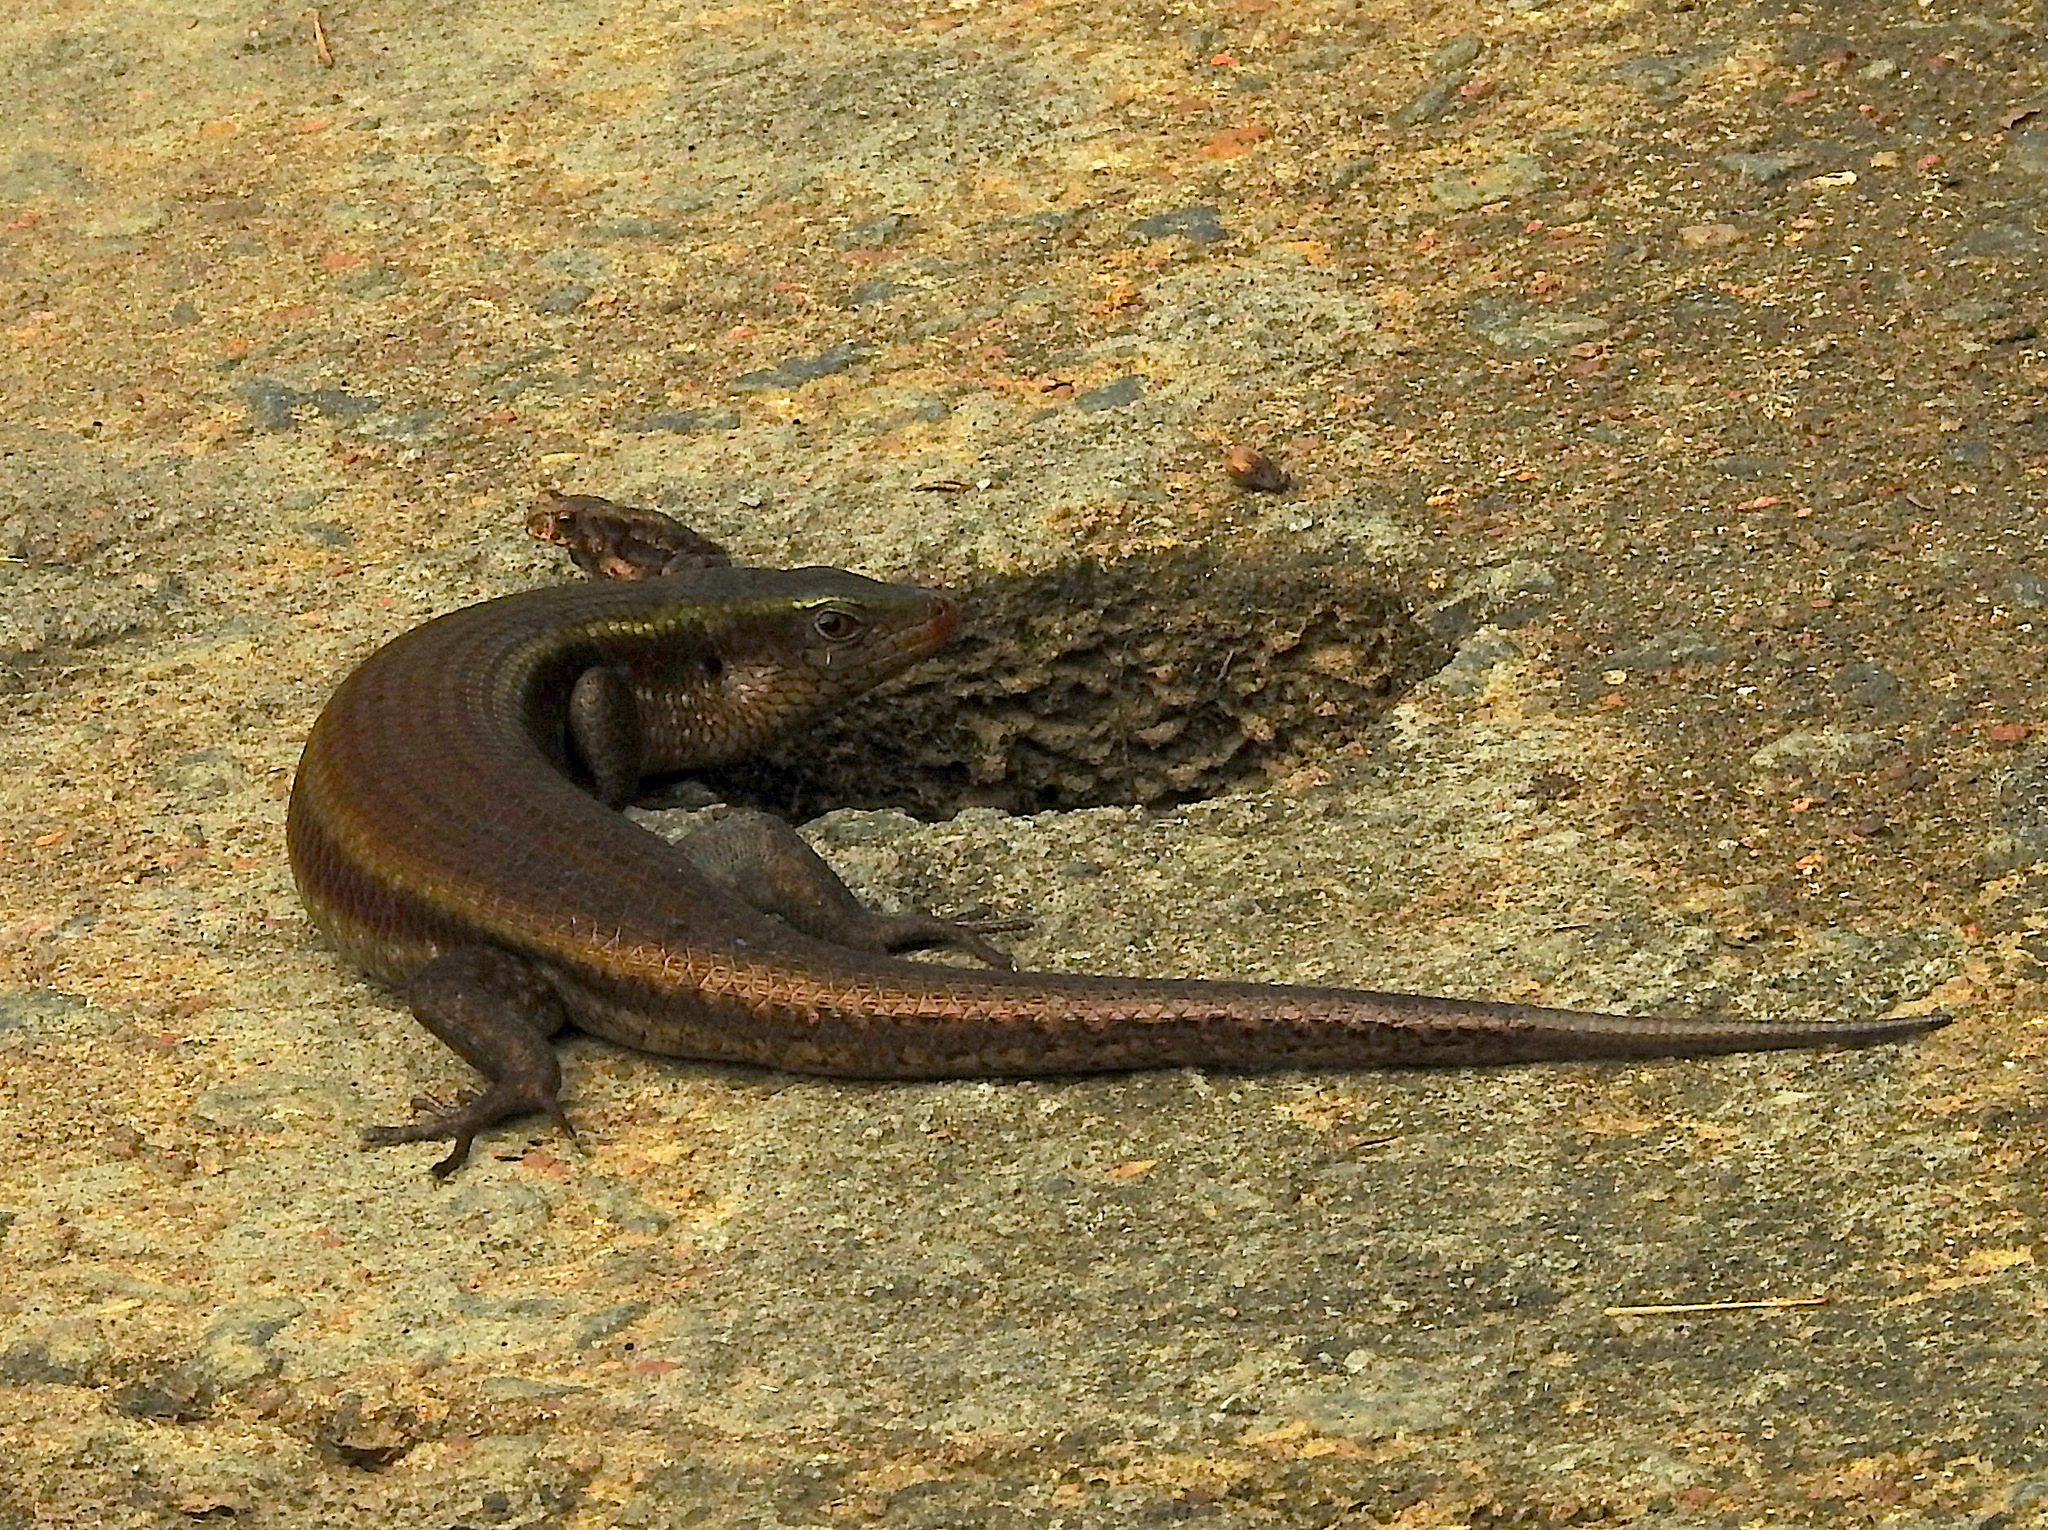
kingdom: Animalia
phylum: Chordata
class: Squamata
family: Scincidae
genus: Eutropis
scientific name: Eutropis carinata
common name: Keeled indian mabuya
